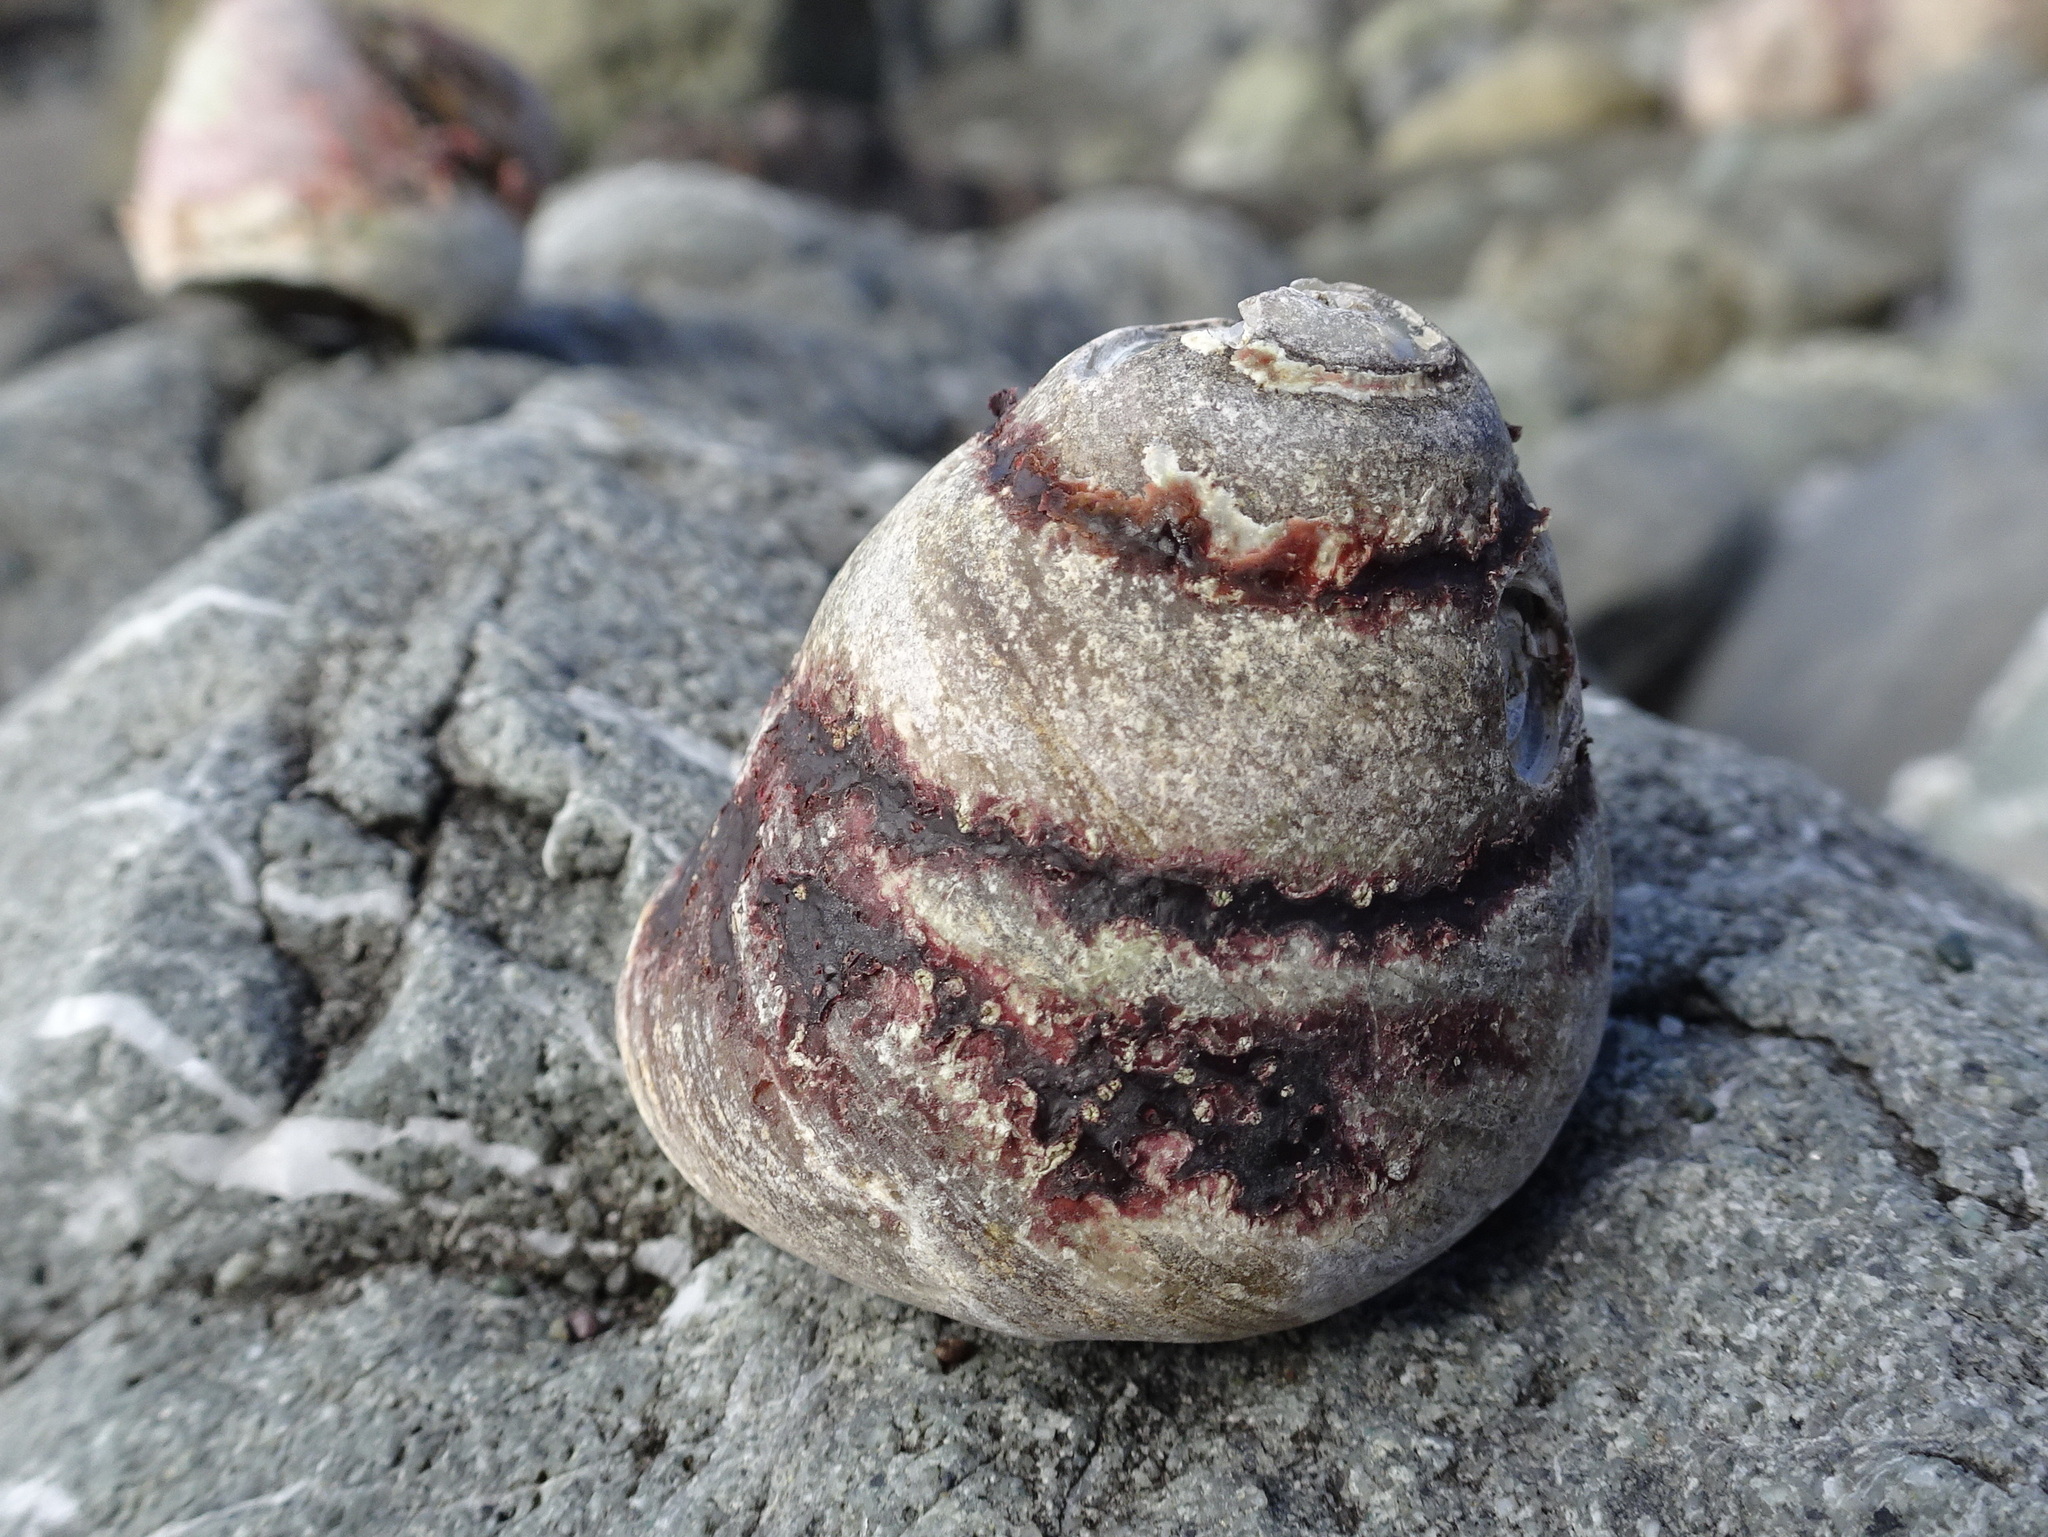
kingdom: Animalia
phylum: Mollusca
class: Gastropoda
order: Trochida
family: Tegulidae
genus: Tegula
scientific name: Tegula brunnea
